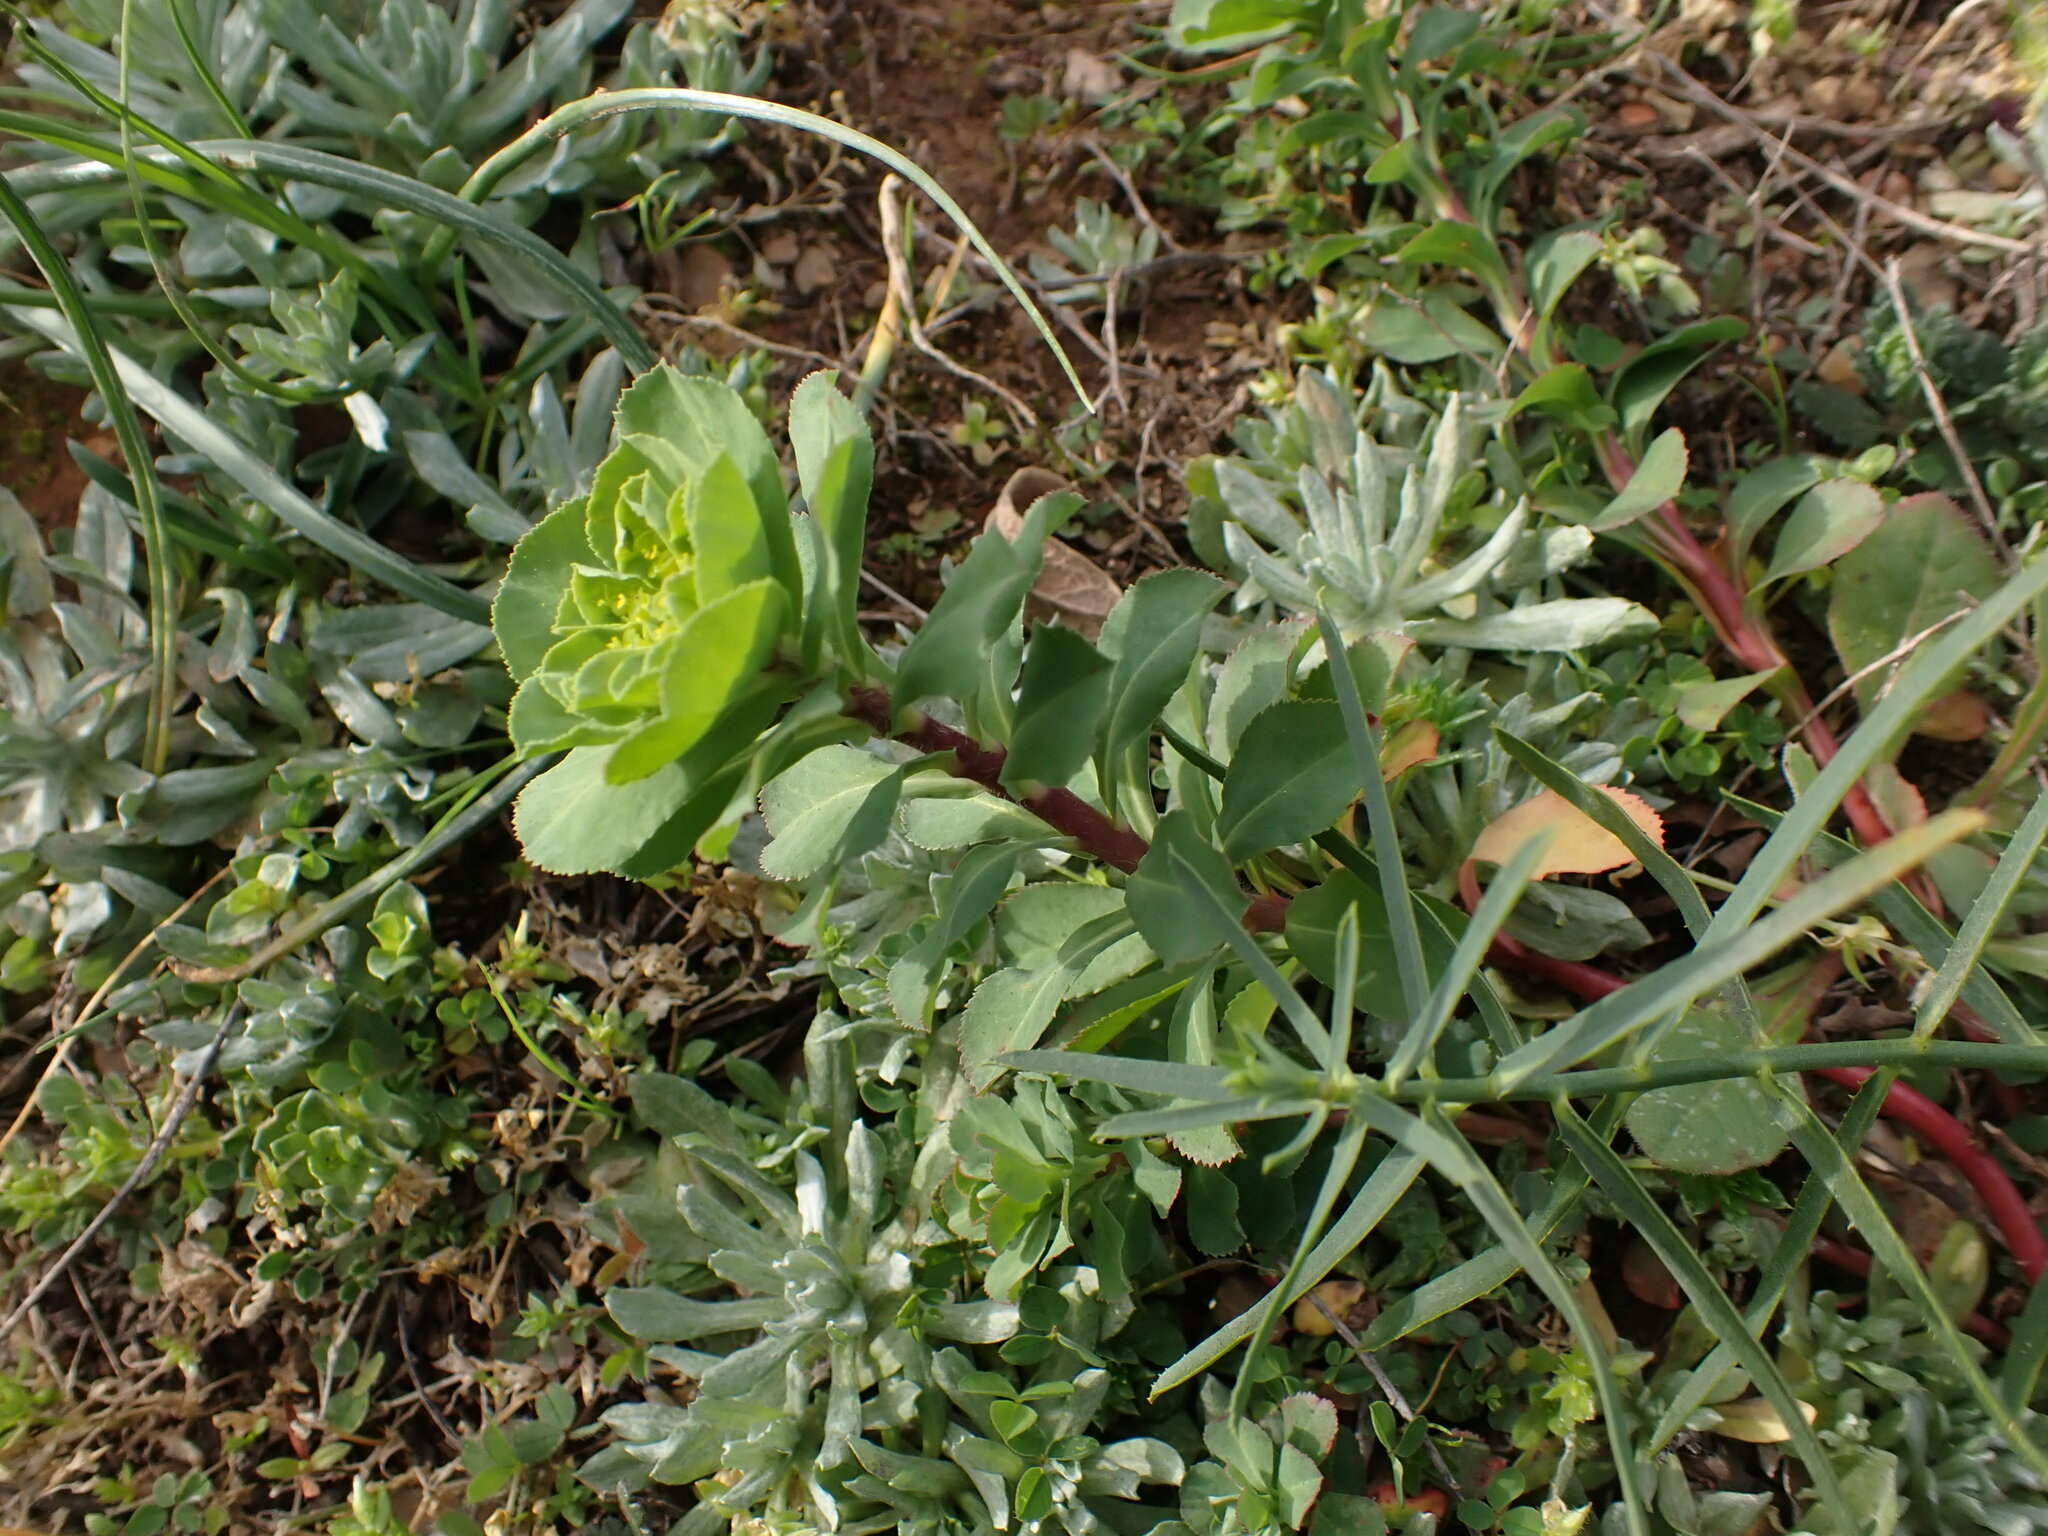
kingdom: Plantae
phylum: Tracheophyta
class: Magnoliopsida
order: Malpighiales
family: Euphorbiaceae
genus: Euphorbia
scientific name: Euphorbia helioscopia
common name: Sun spurge
